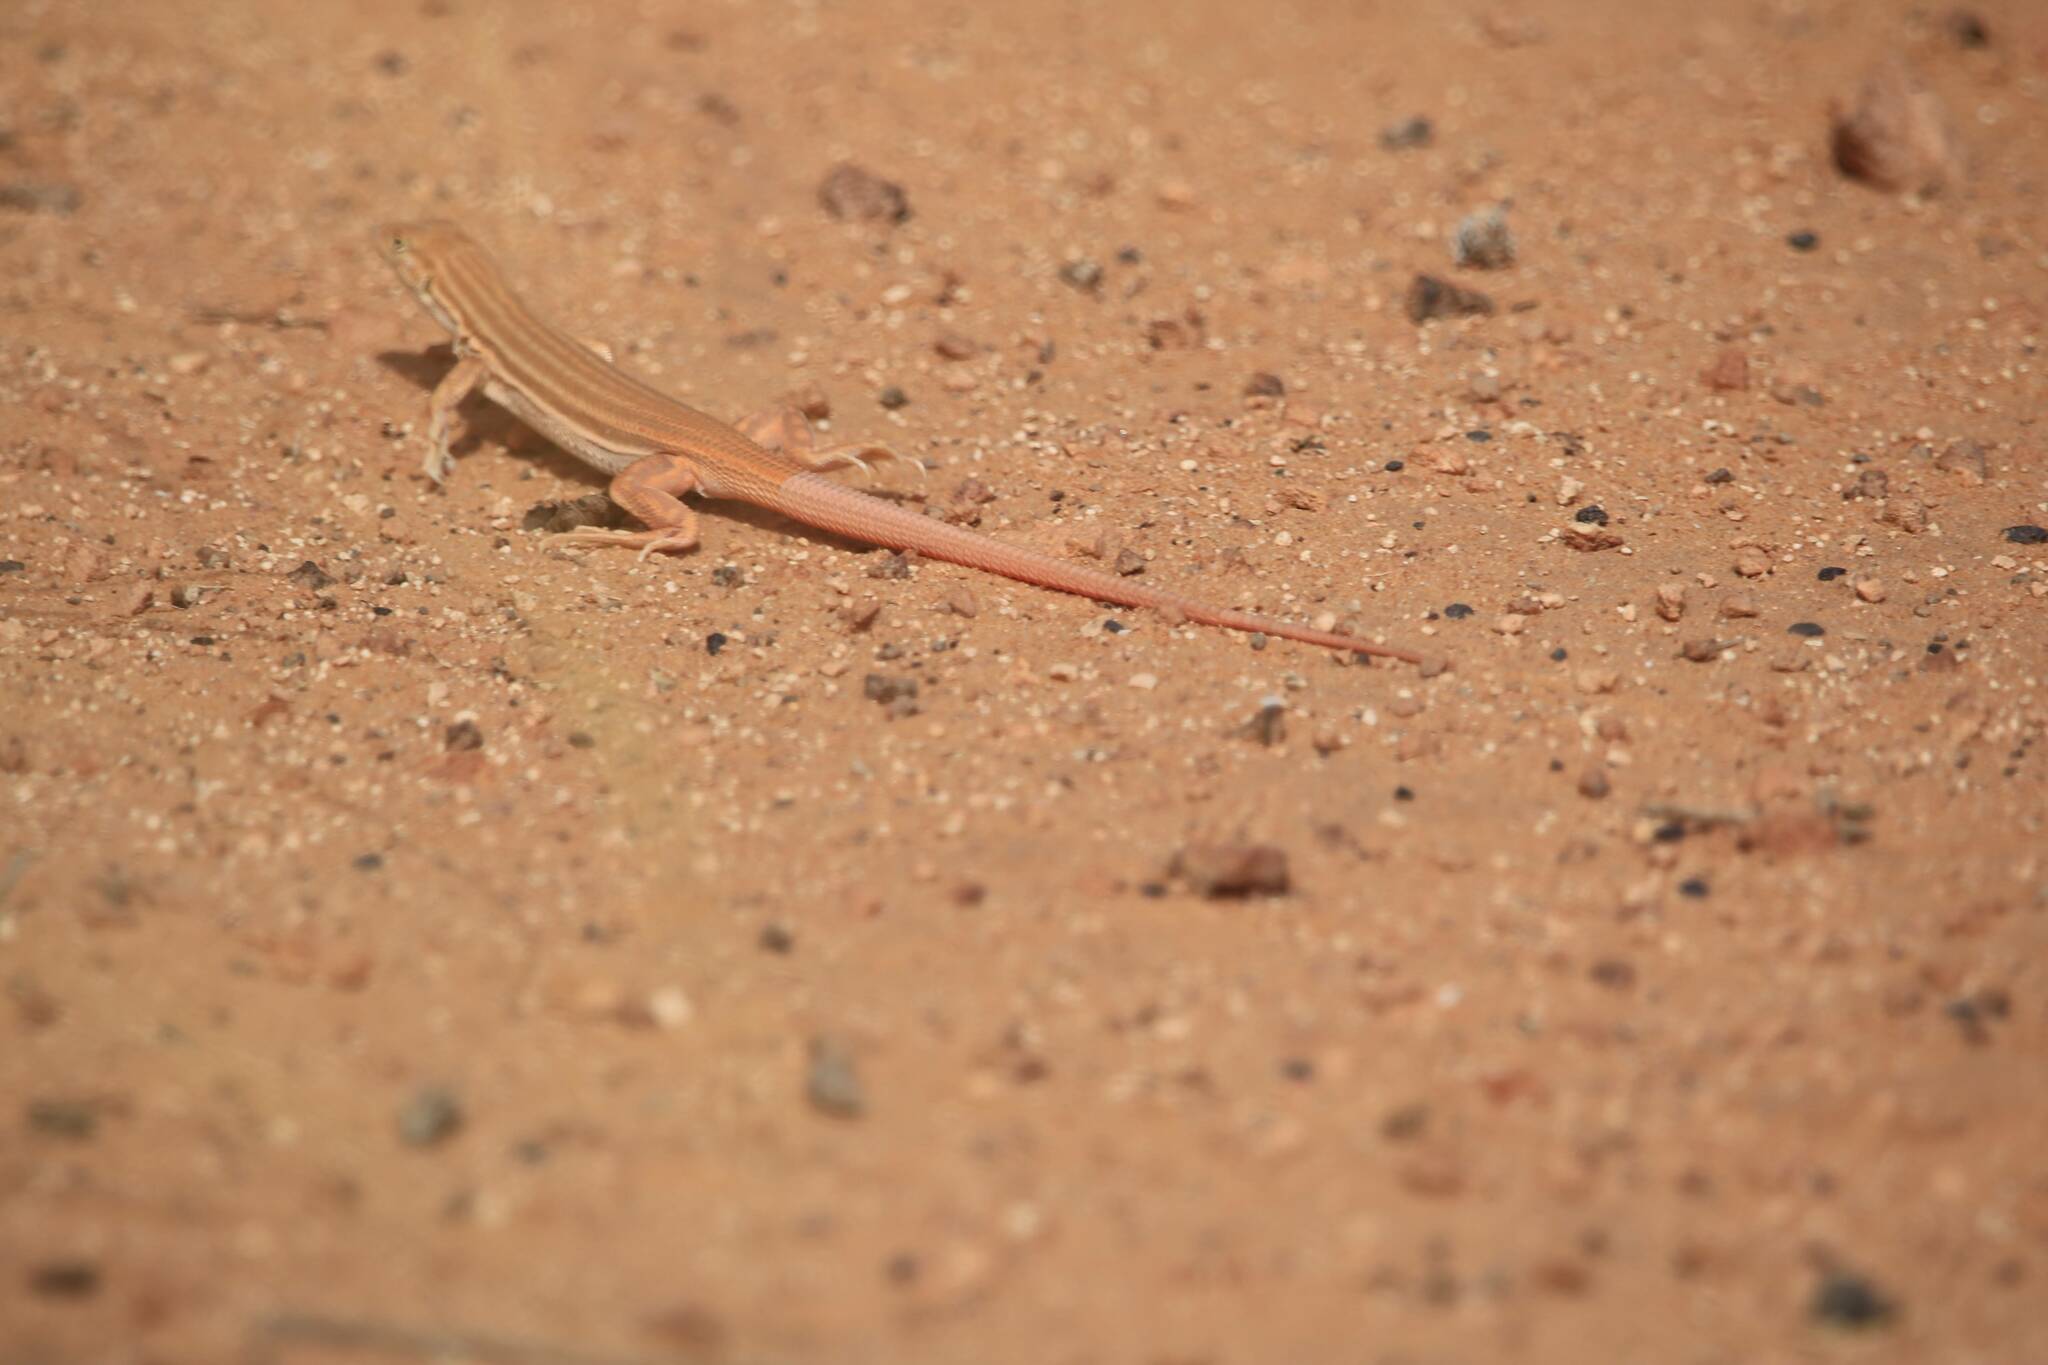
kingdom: Animalia
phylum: Chordata
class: Squamata
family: Lacertidae
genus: Acanthodactylus
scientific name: Acanthodactylus boskianus
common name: Bosc’s fringe-toed lizard
